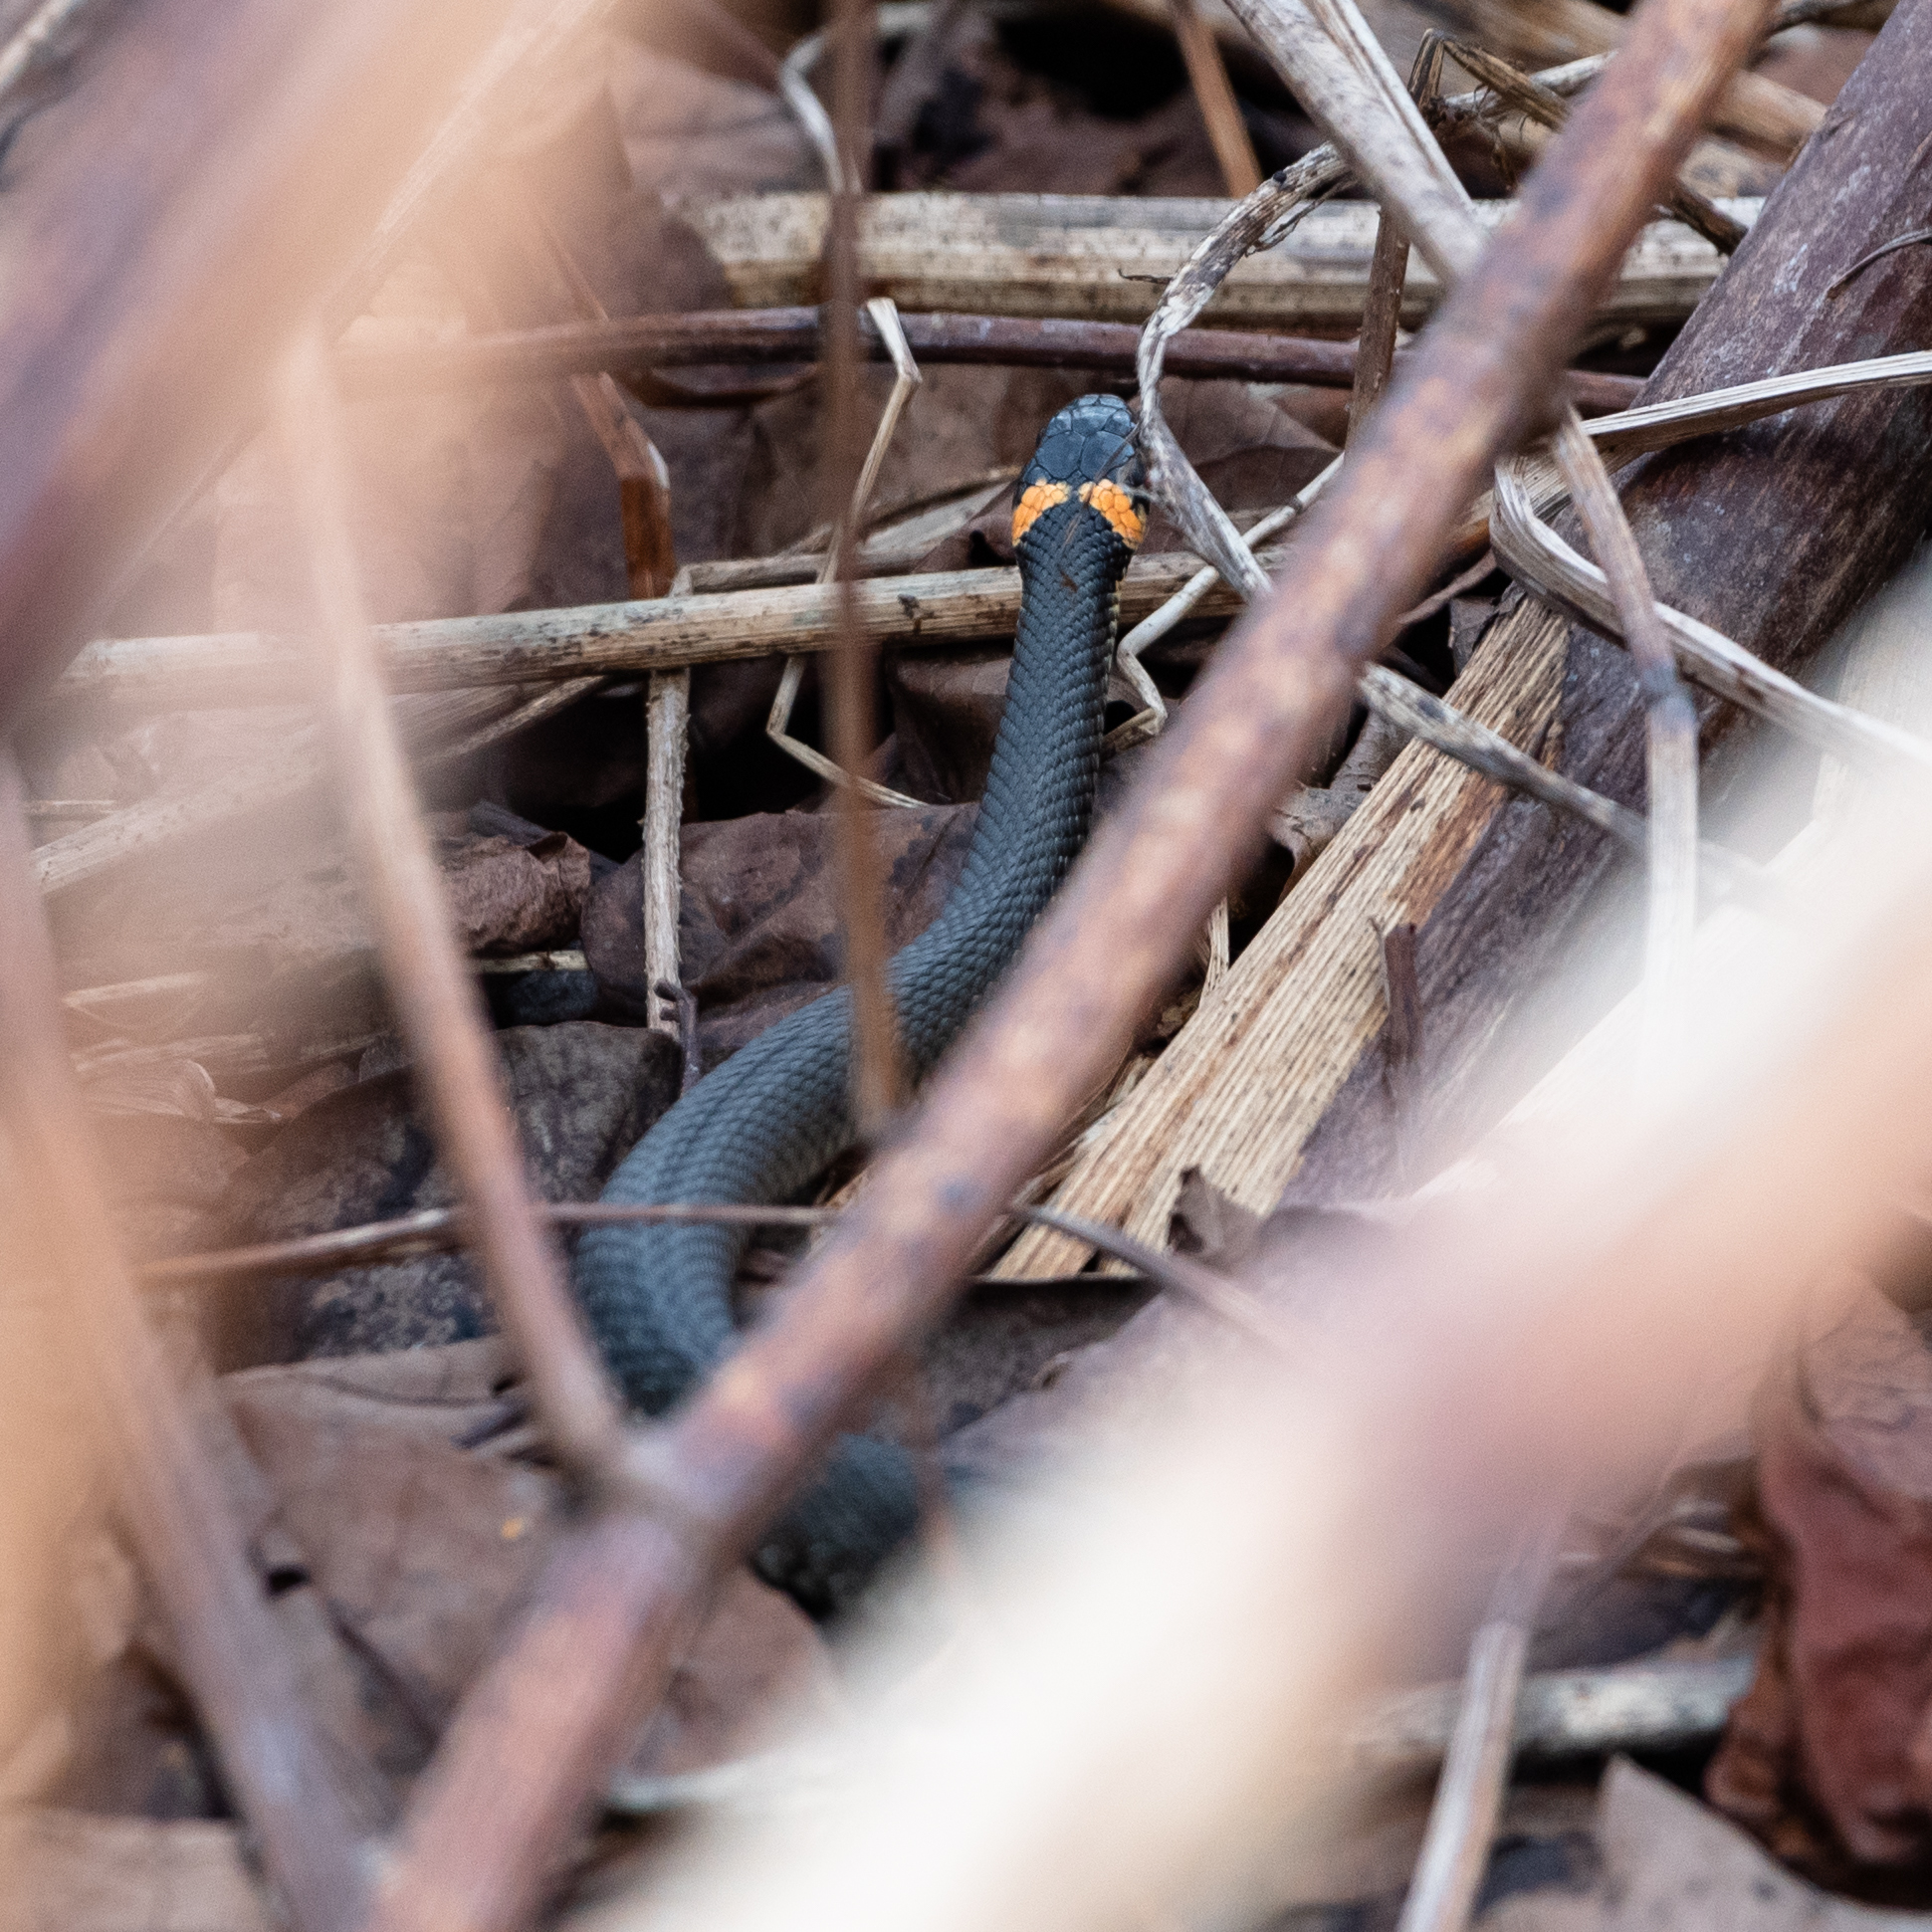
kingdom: Animalia
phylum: Chordata
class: Squamata
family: Colubridae
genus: Natrix
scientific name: Natrix natrix
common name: Grass snake
